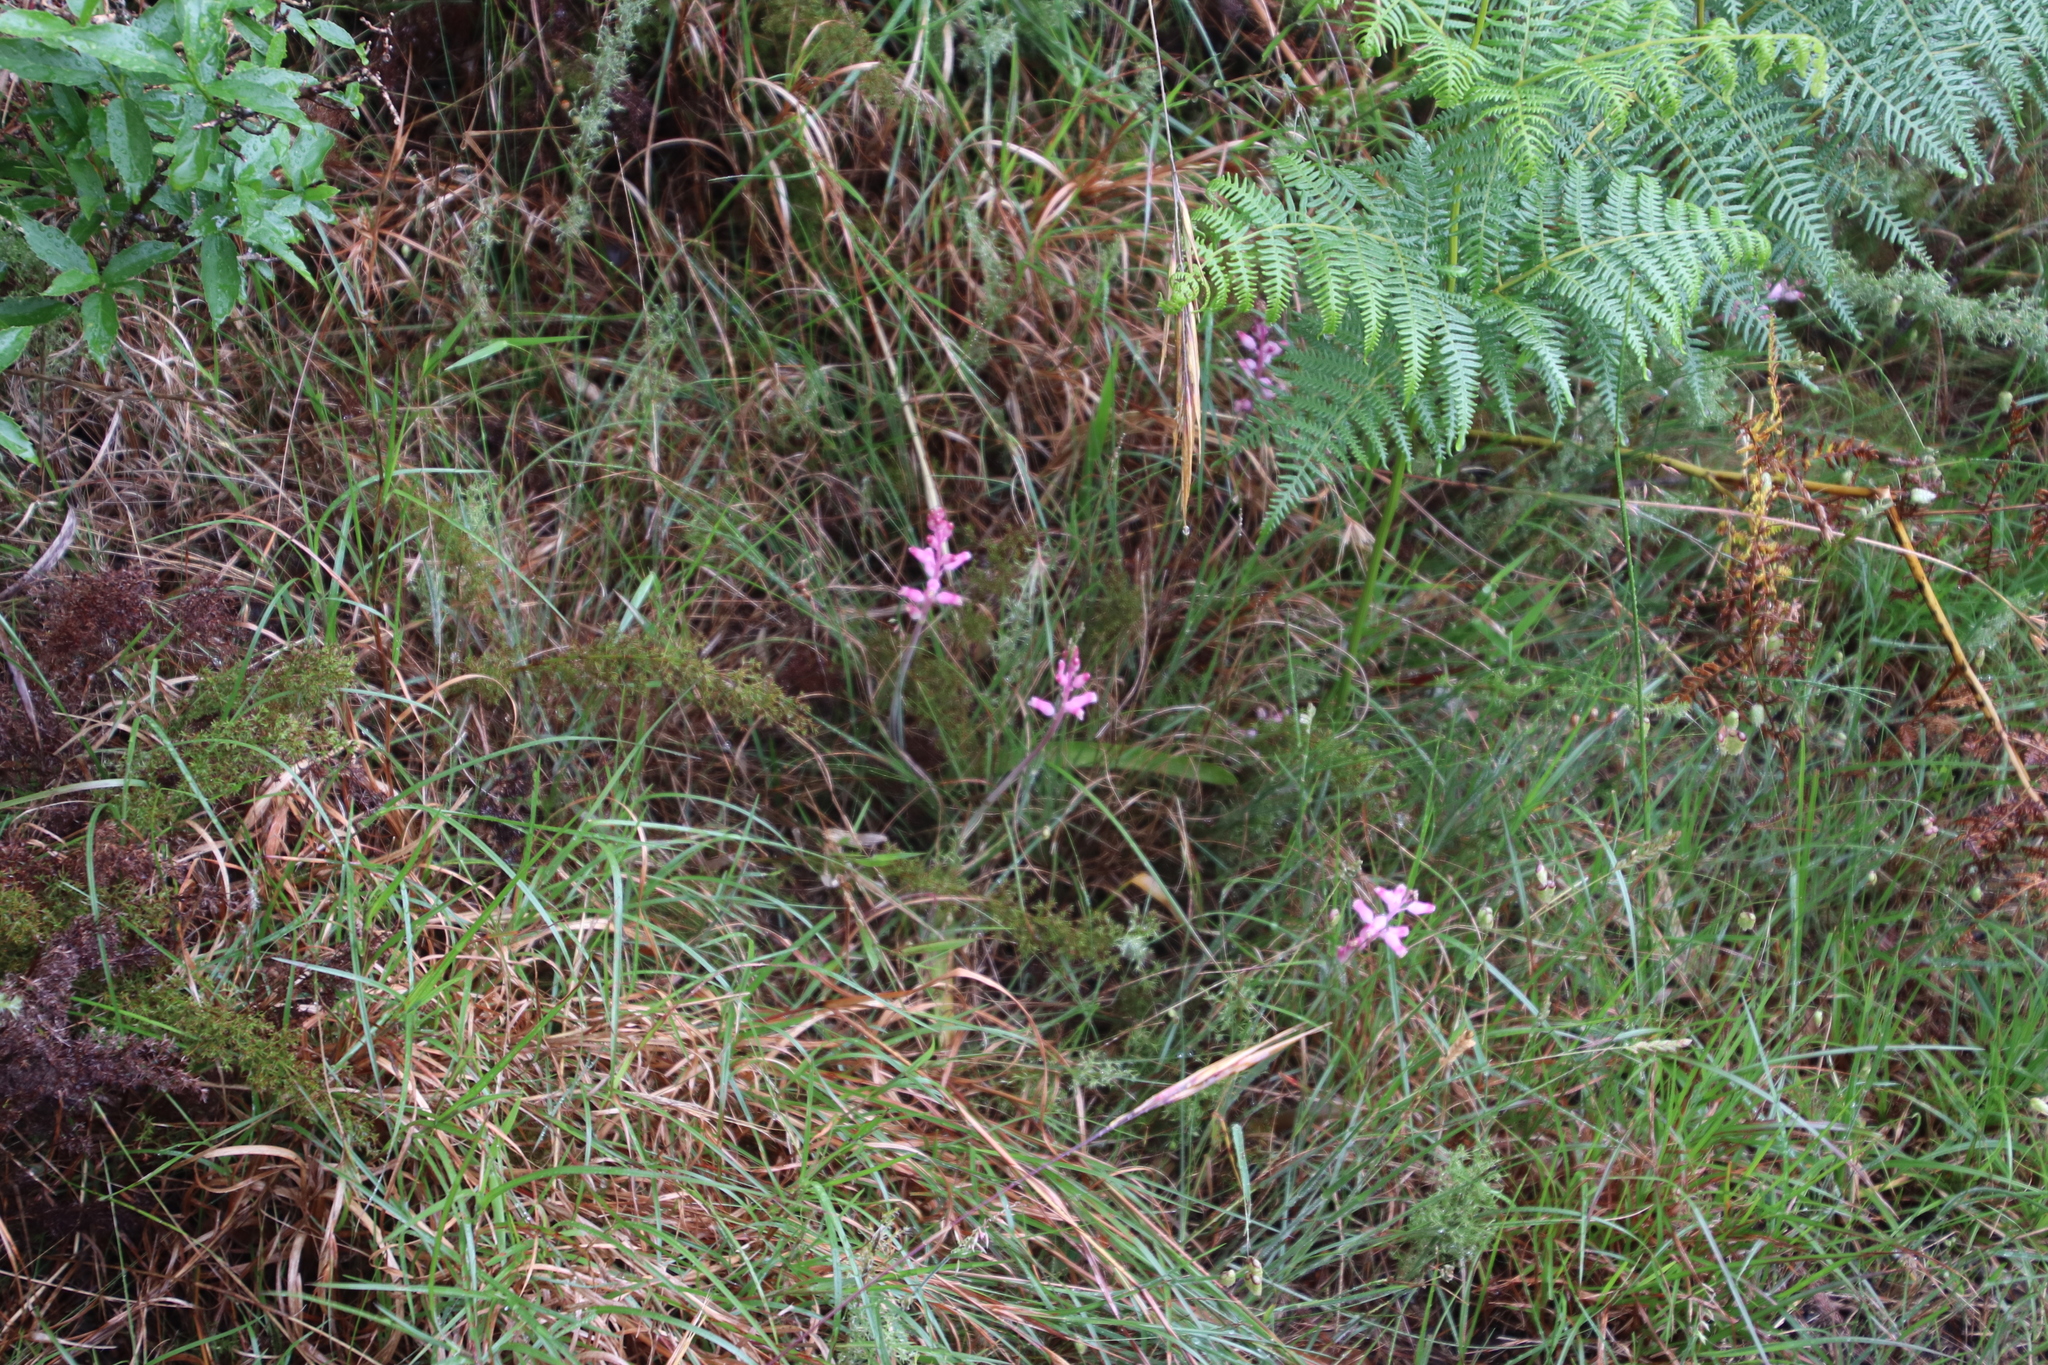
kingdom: Plantae
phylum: Tracheophyta
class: Liliopsida
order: Asparagales
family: Asparagaceae
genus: Lachenalia
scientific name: Lachenalia rosea
